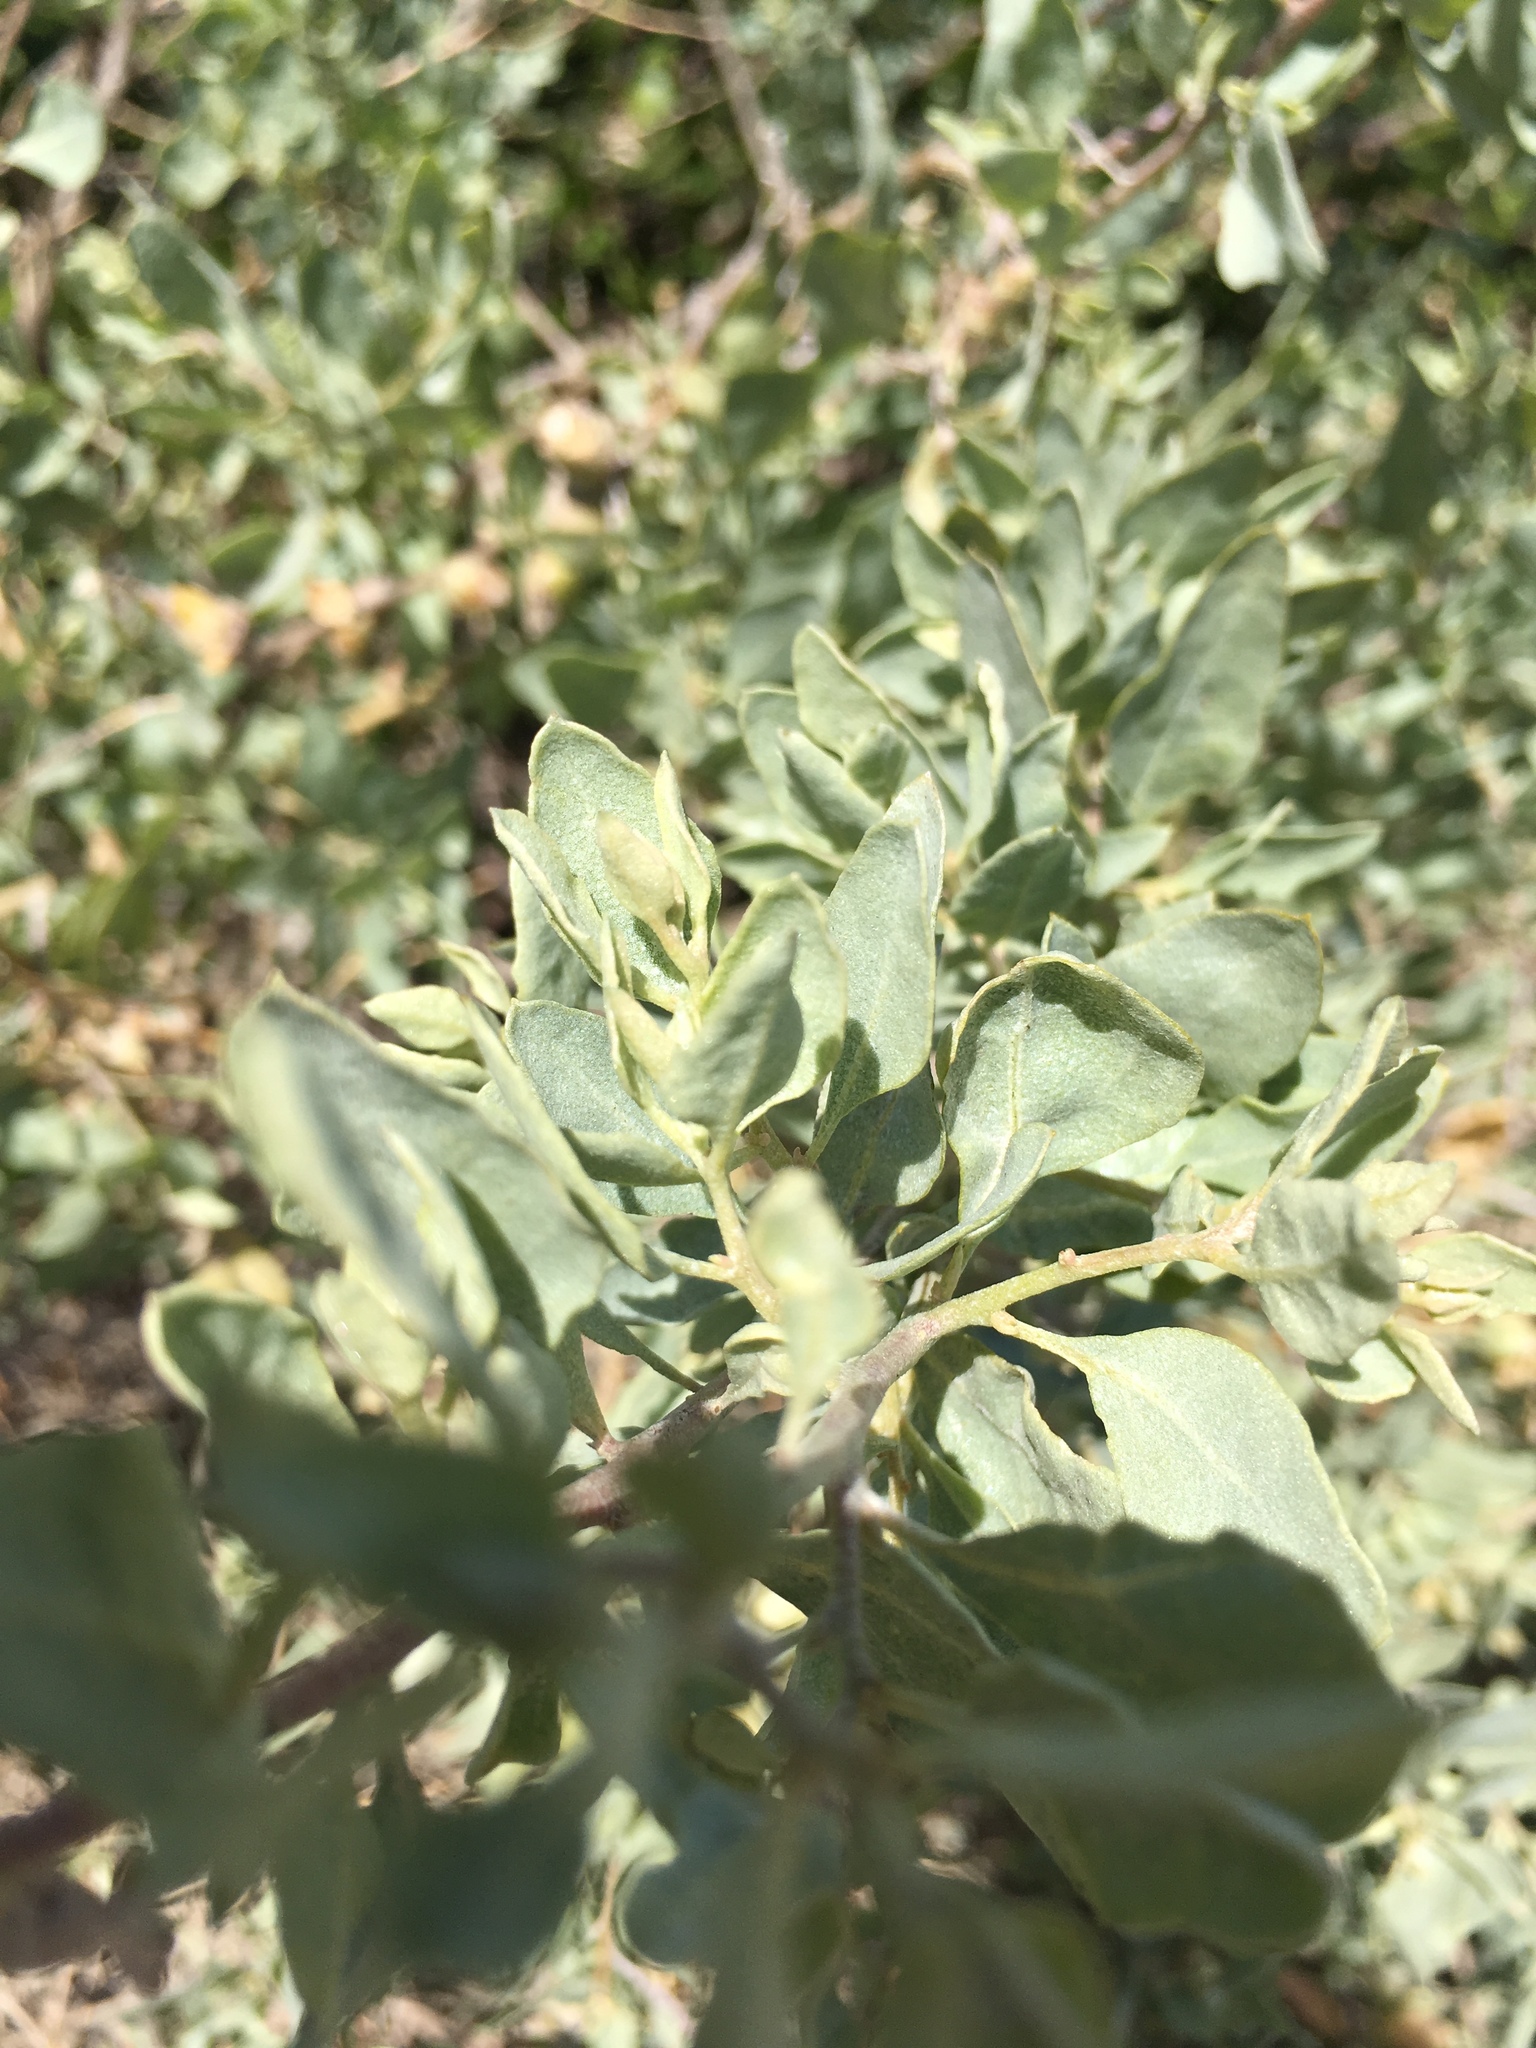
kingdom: Plantae
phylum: Tracheophyta
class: Magnoliopsida
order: Caryophyllales
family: Amaranthaceae
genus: Atriplex
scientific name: Atriplex lentiformis
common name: Big saltbush
